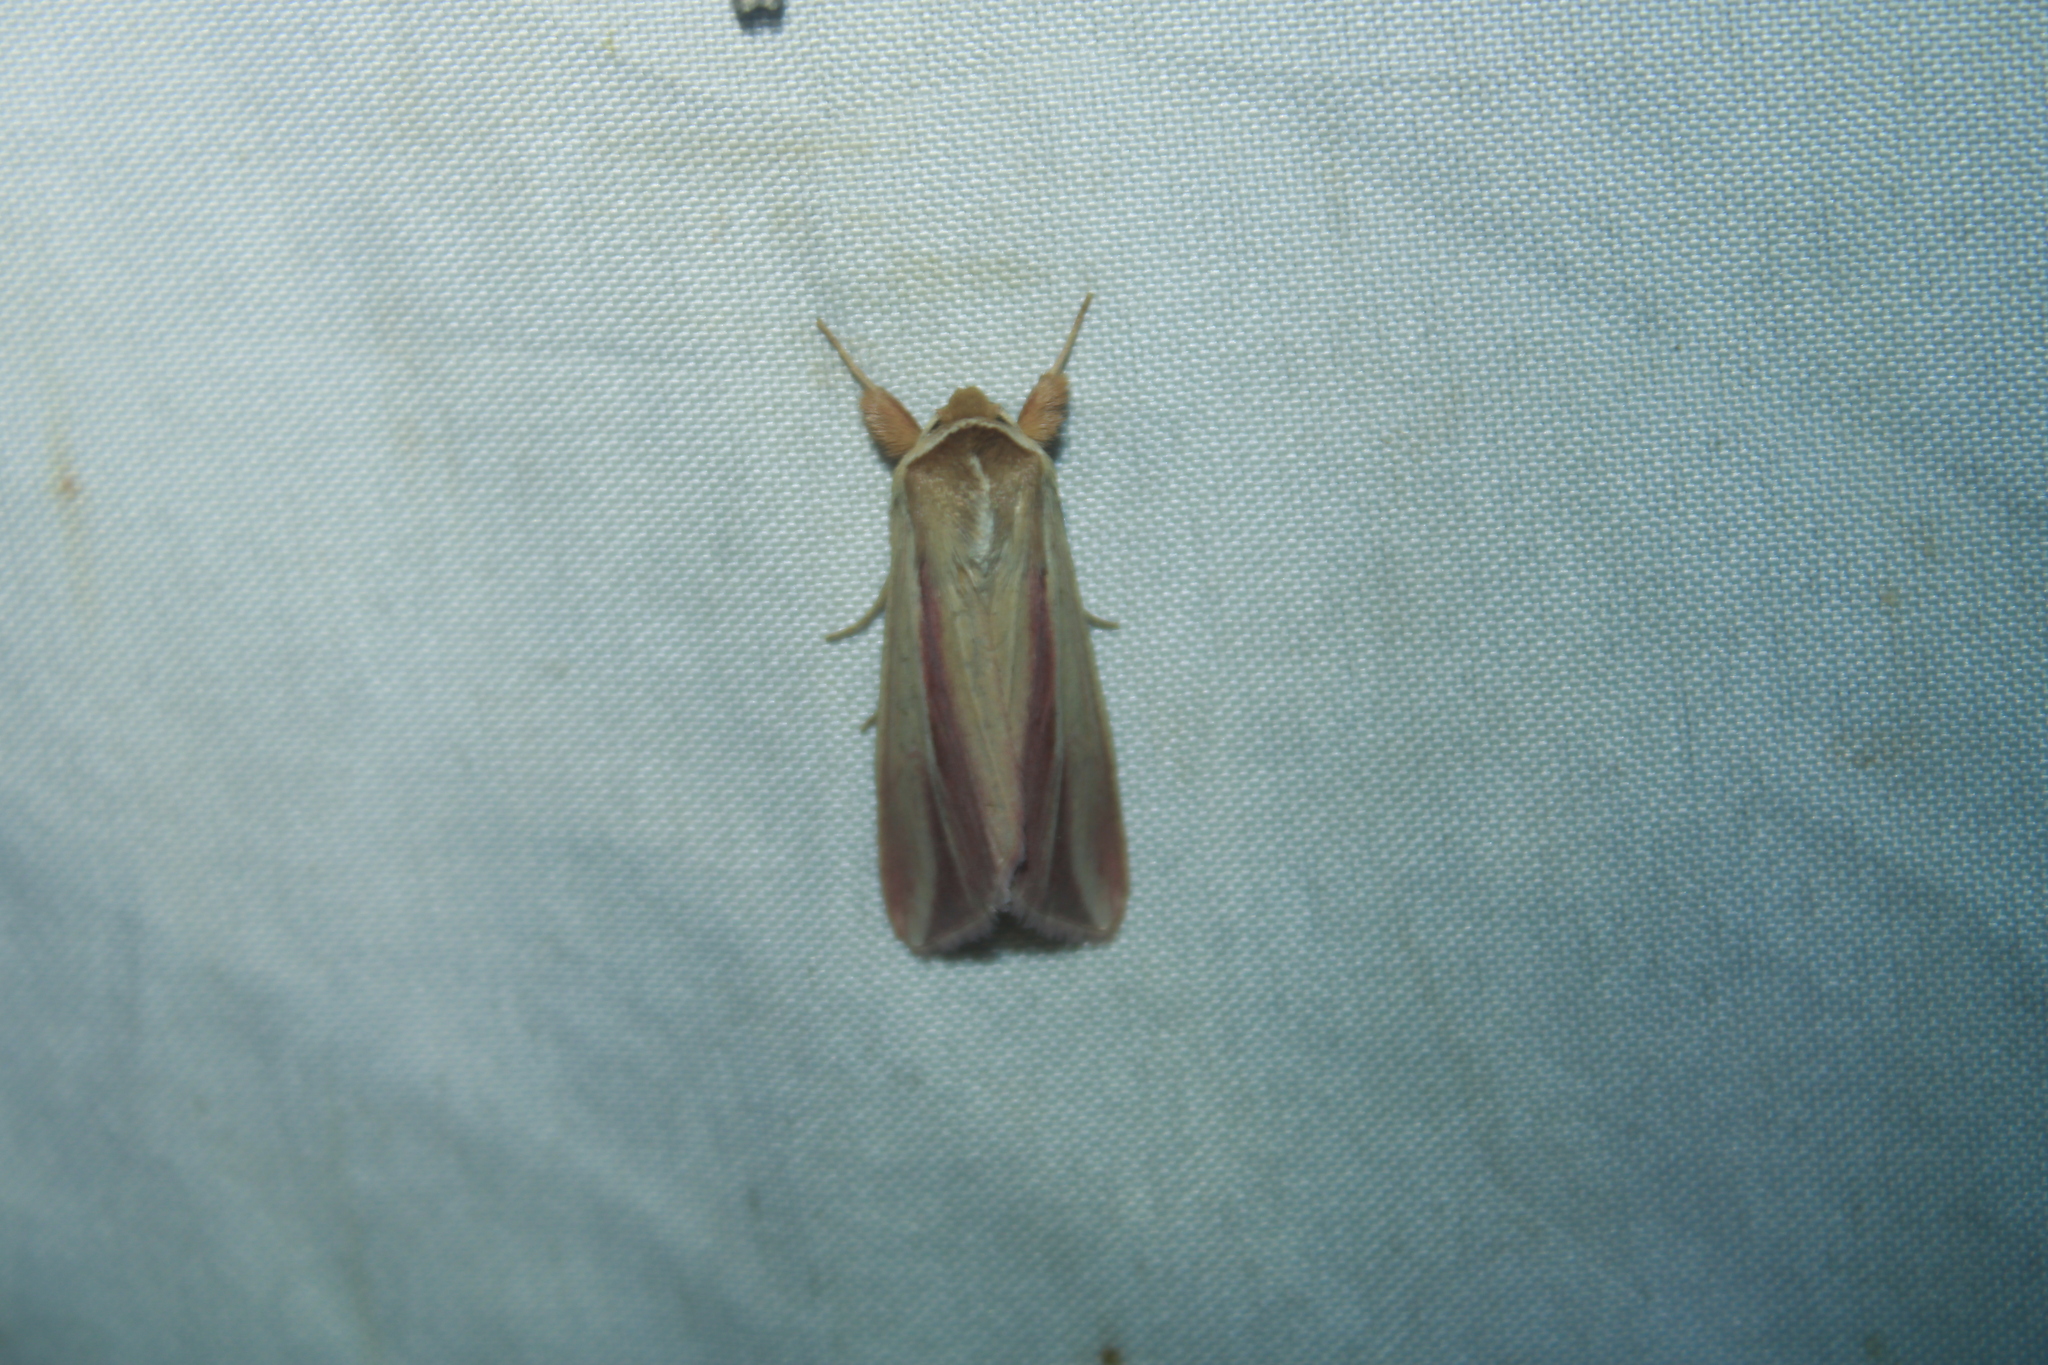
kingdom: Animalia
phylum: Arthropoda
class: Insecta
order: Lepidoptera
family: Noctuidae
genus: Dargida
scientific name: Dargida rubripennis
